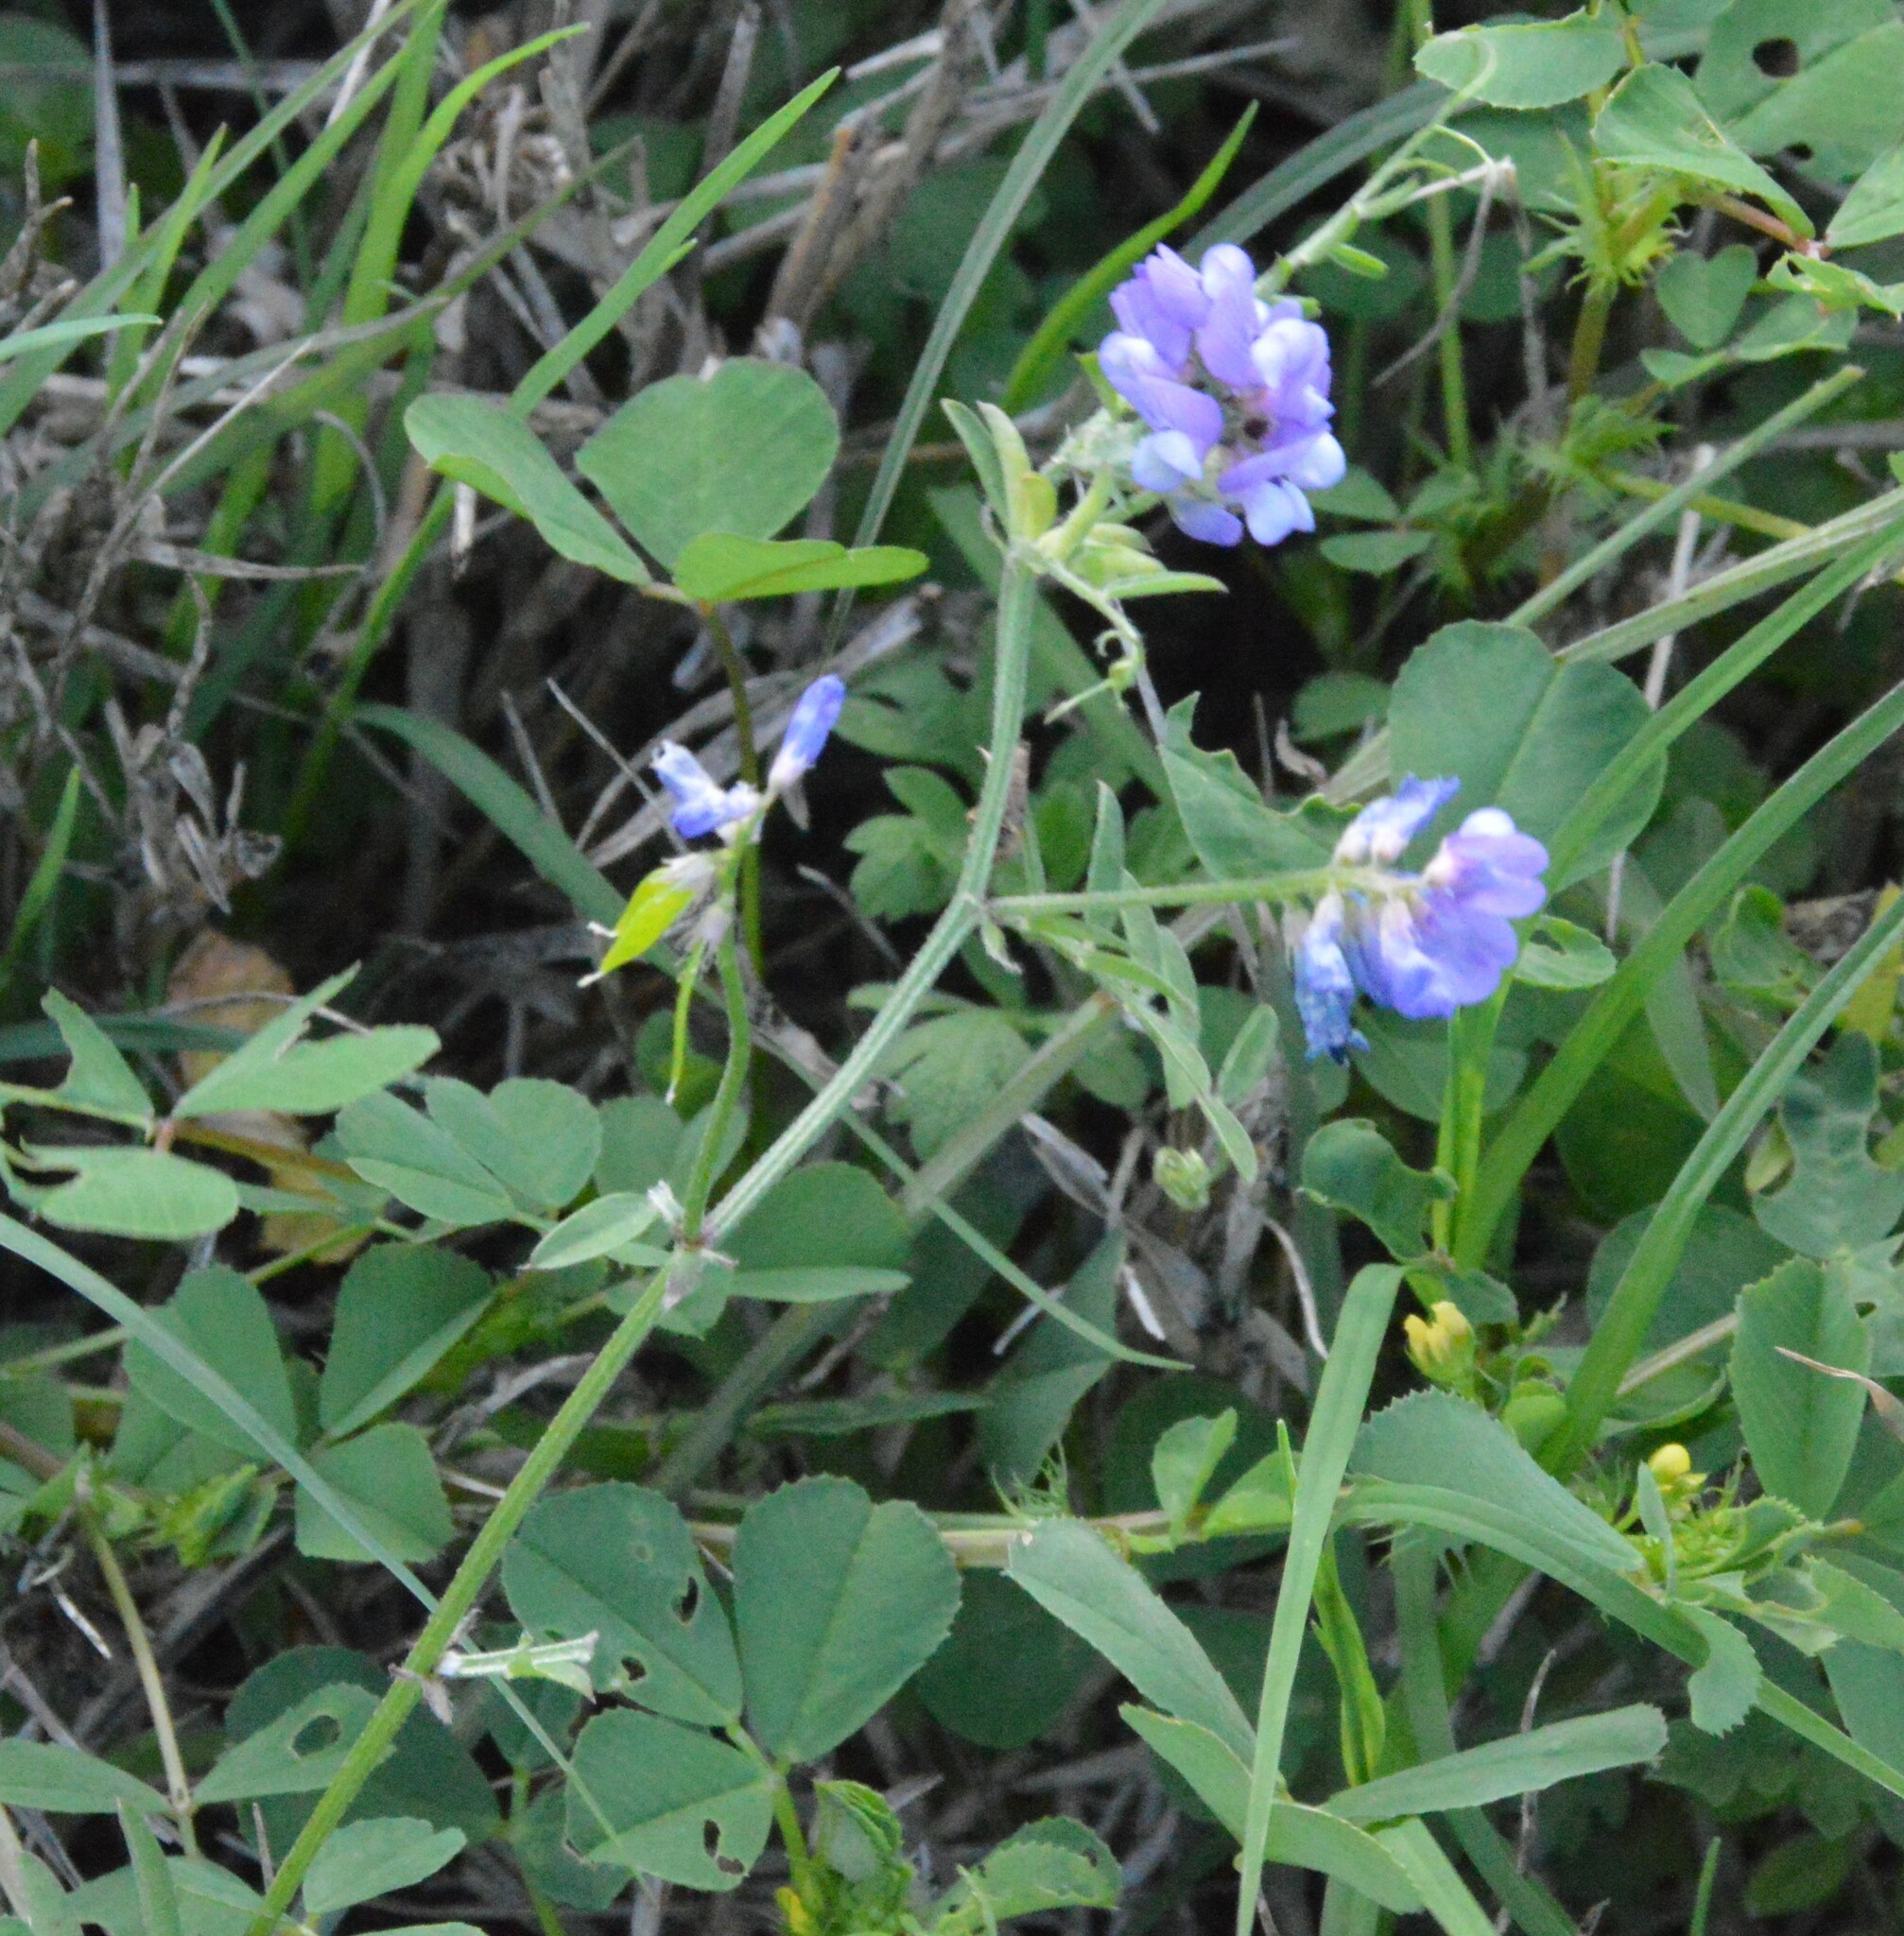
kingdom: Plantae
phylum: Tracheophyta
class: Magnoliopsida
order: Fabales
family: Fabaceae
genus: Vicia
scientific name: Vicia ludoviciana
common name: Louisiana vetch
